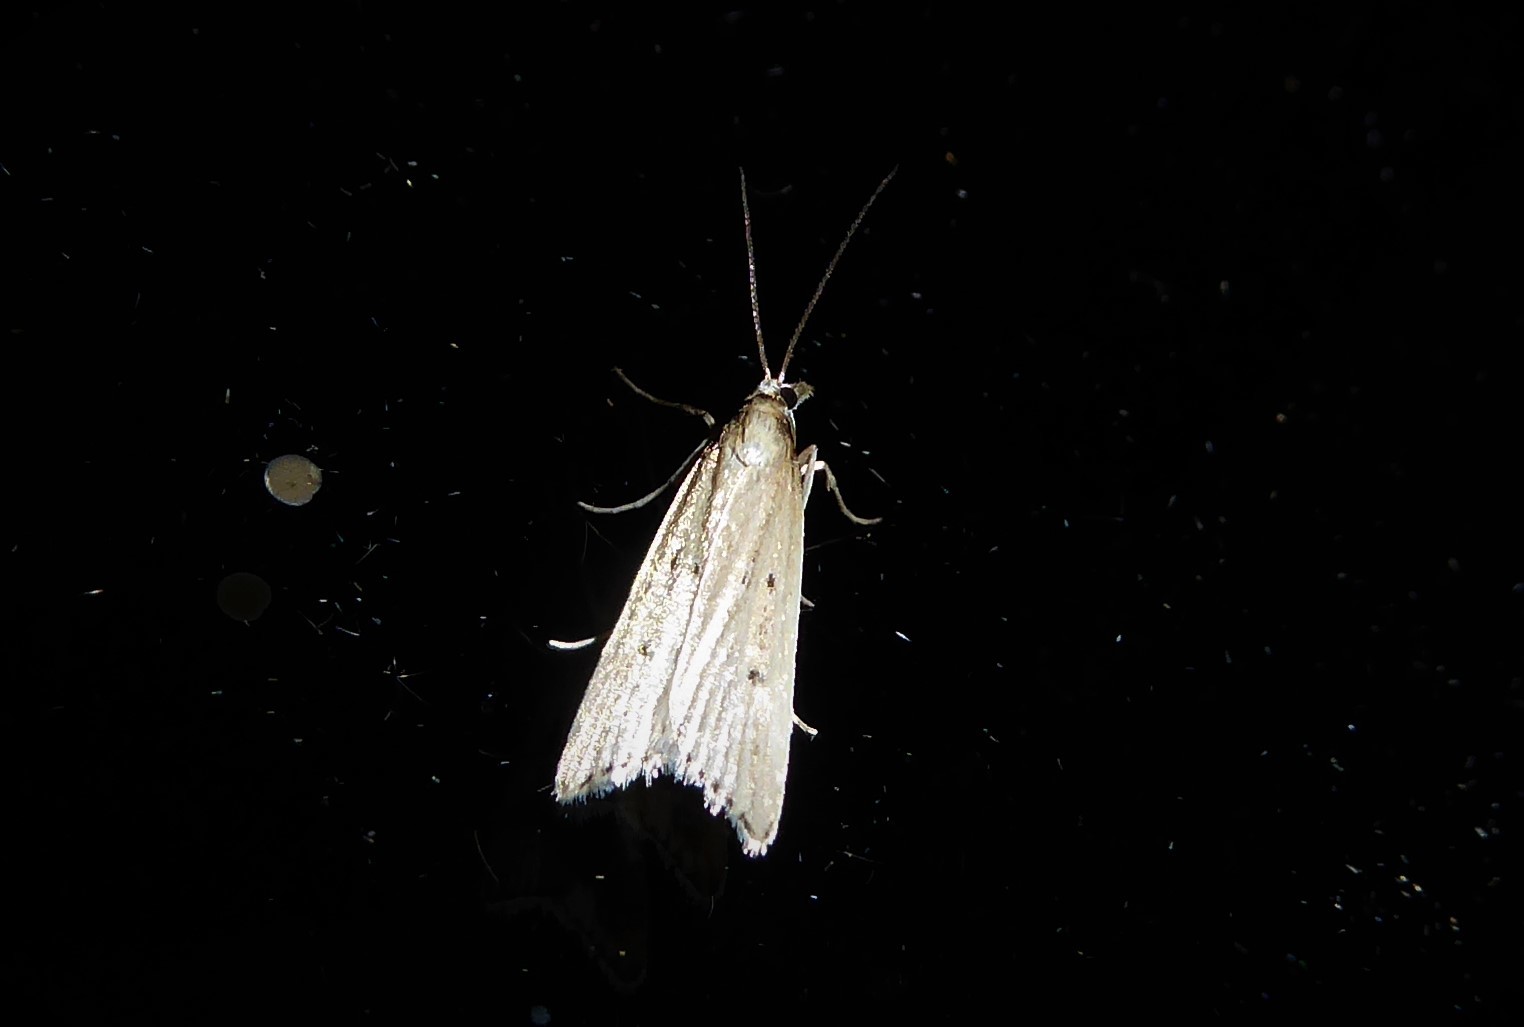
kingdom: Animalia
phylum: Arthropoda
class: Insecta
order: Lepidoptera
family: Crambidae
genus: Antiscopa
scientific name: Antiscopa elaphra
